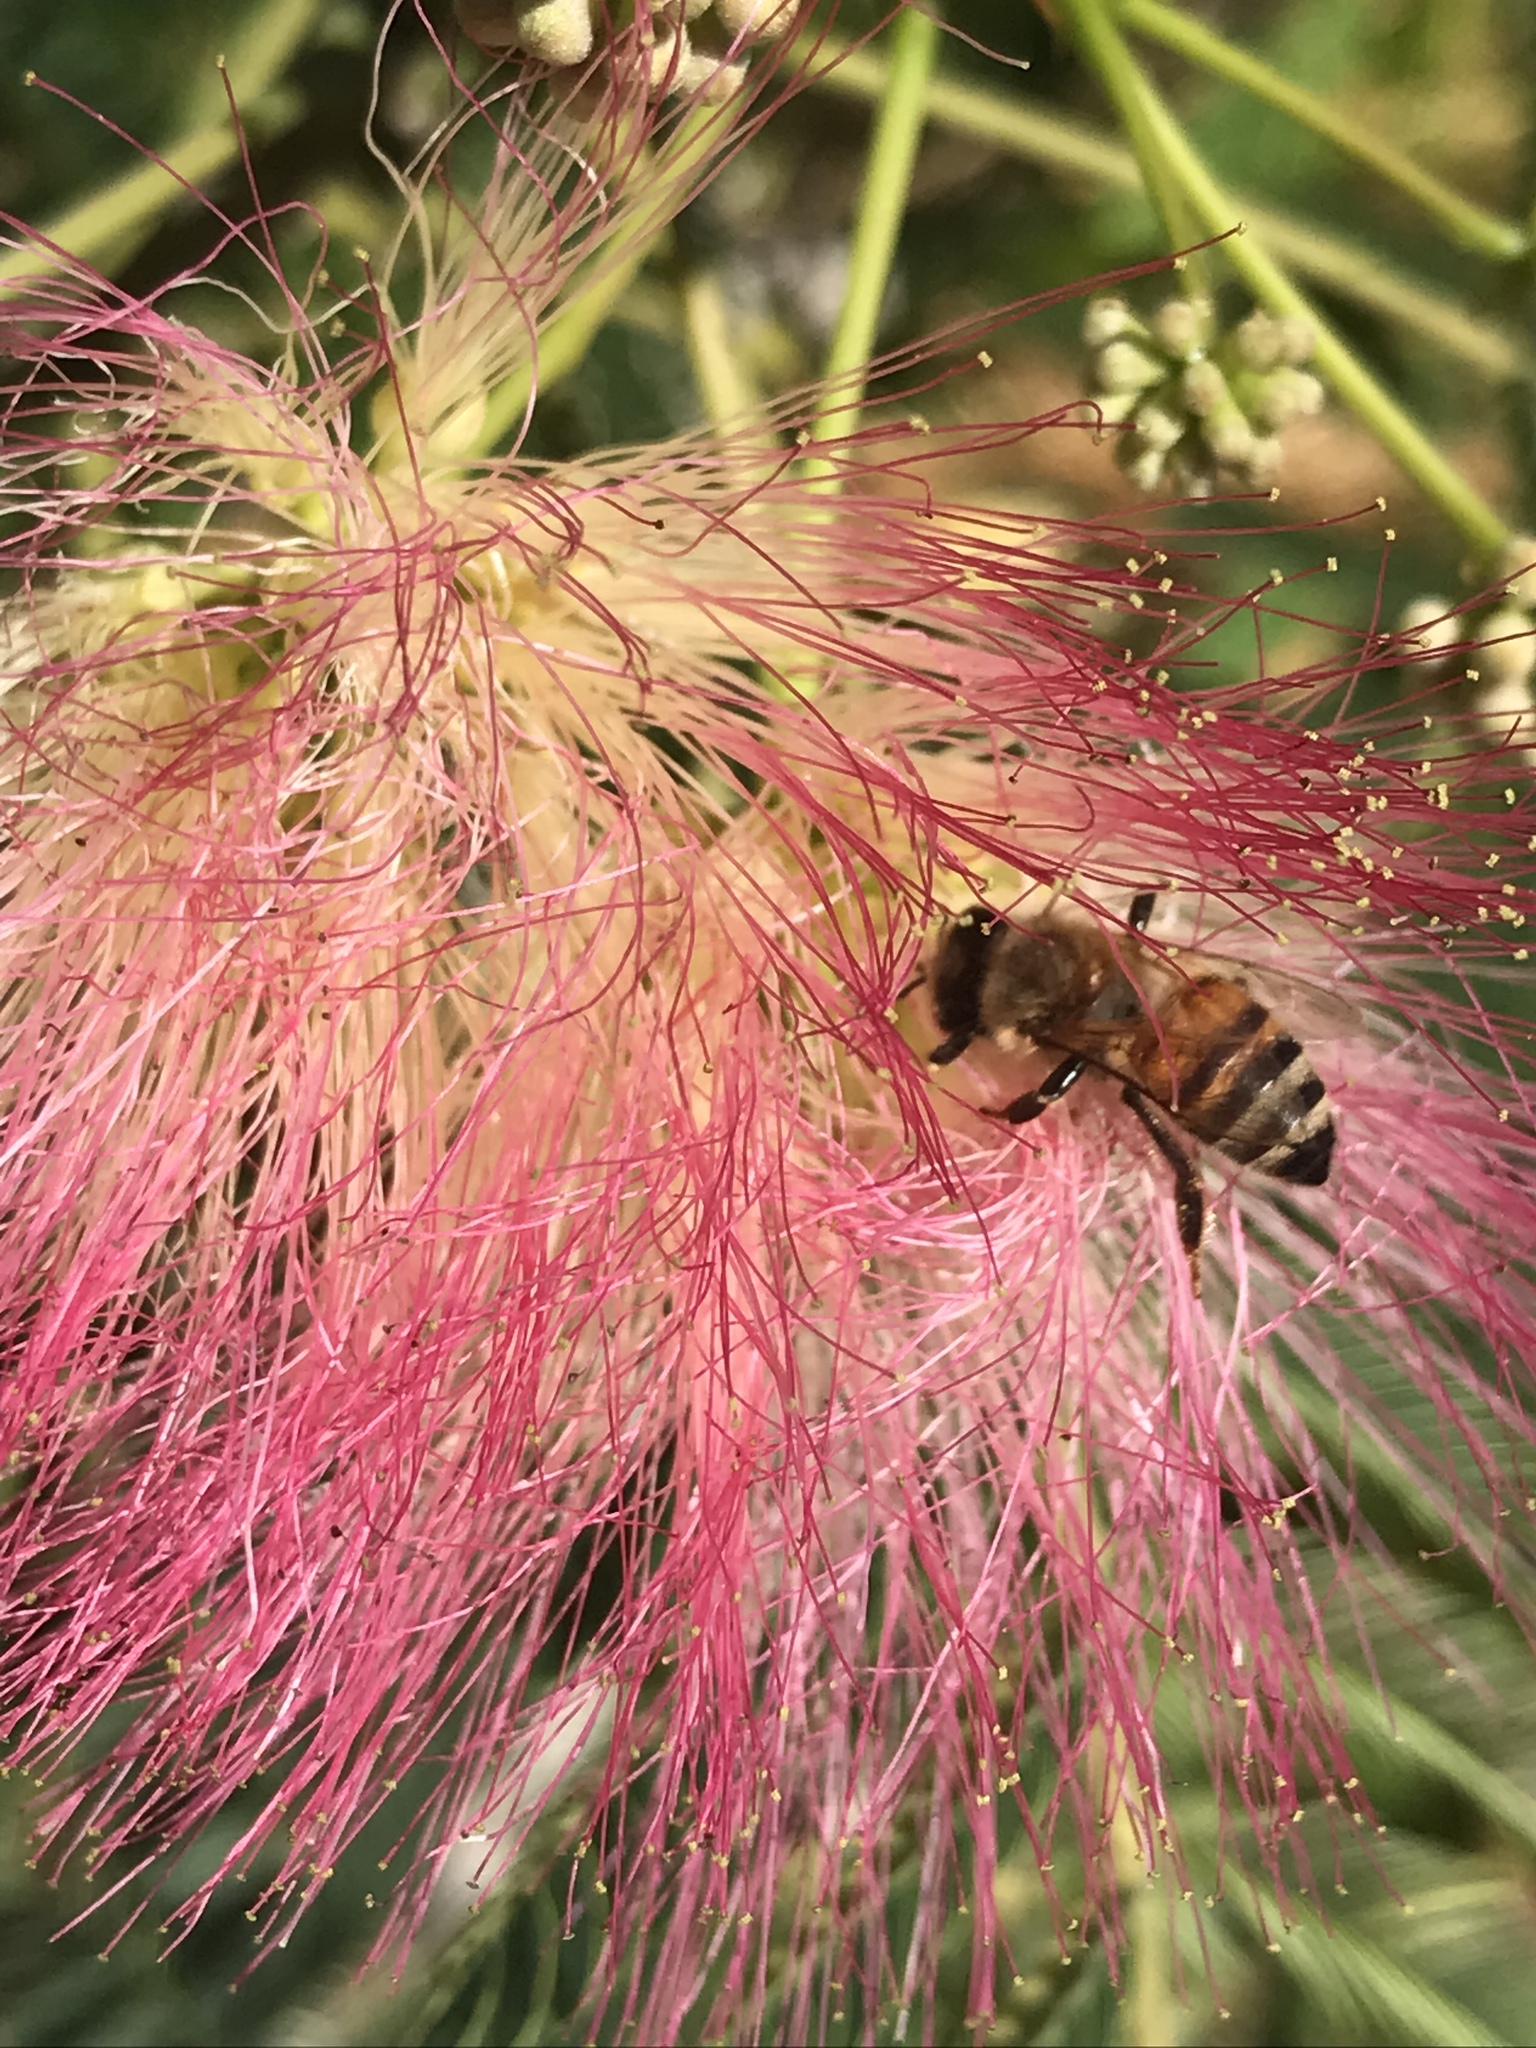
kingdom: Animalia
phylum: Arthropoda
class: Insecta
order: Hymenoptera
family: Apidae
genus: Apis
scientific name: Apis mellifera
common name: Honey bee
